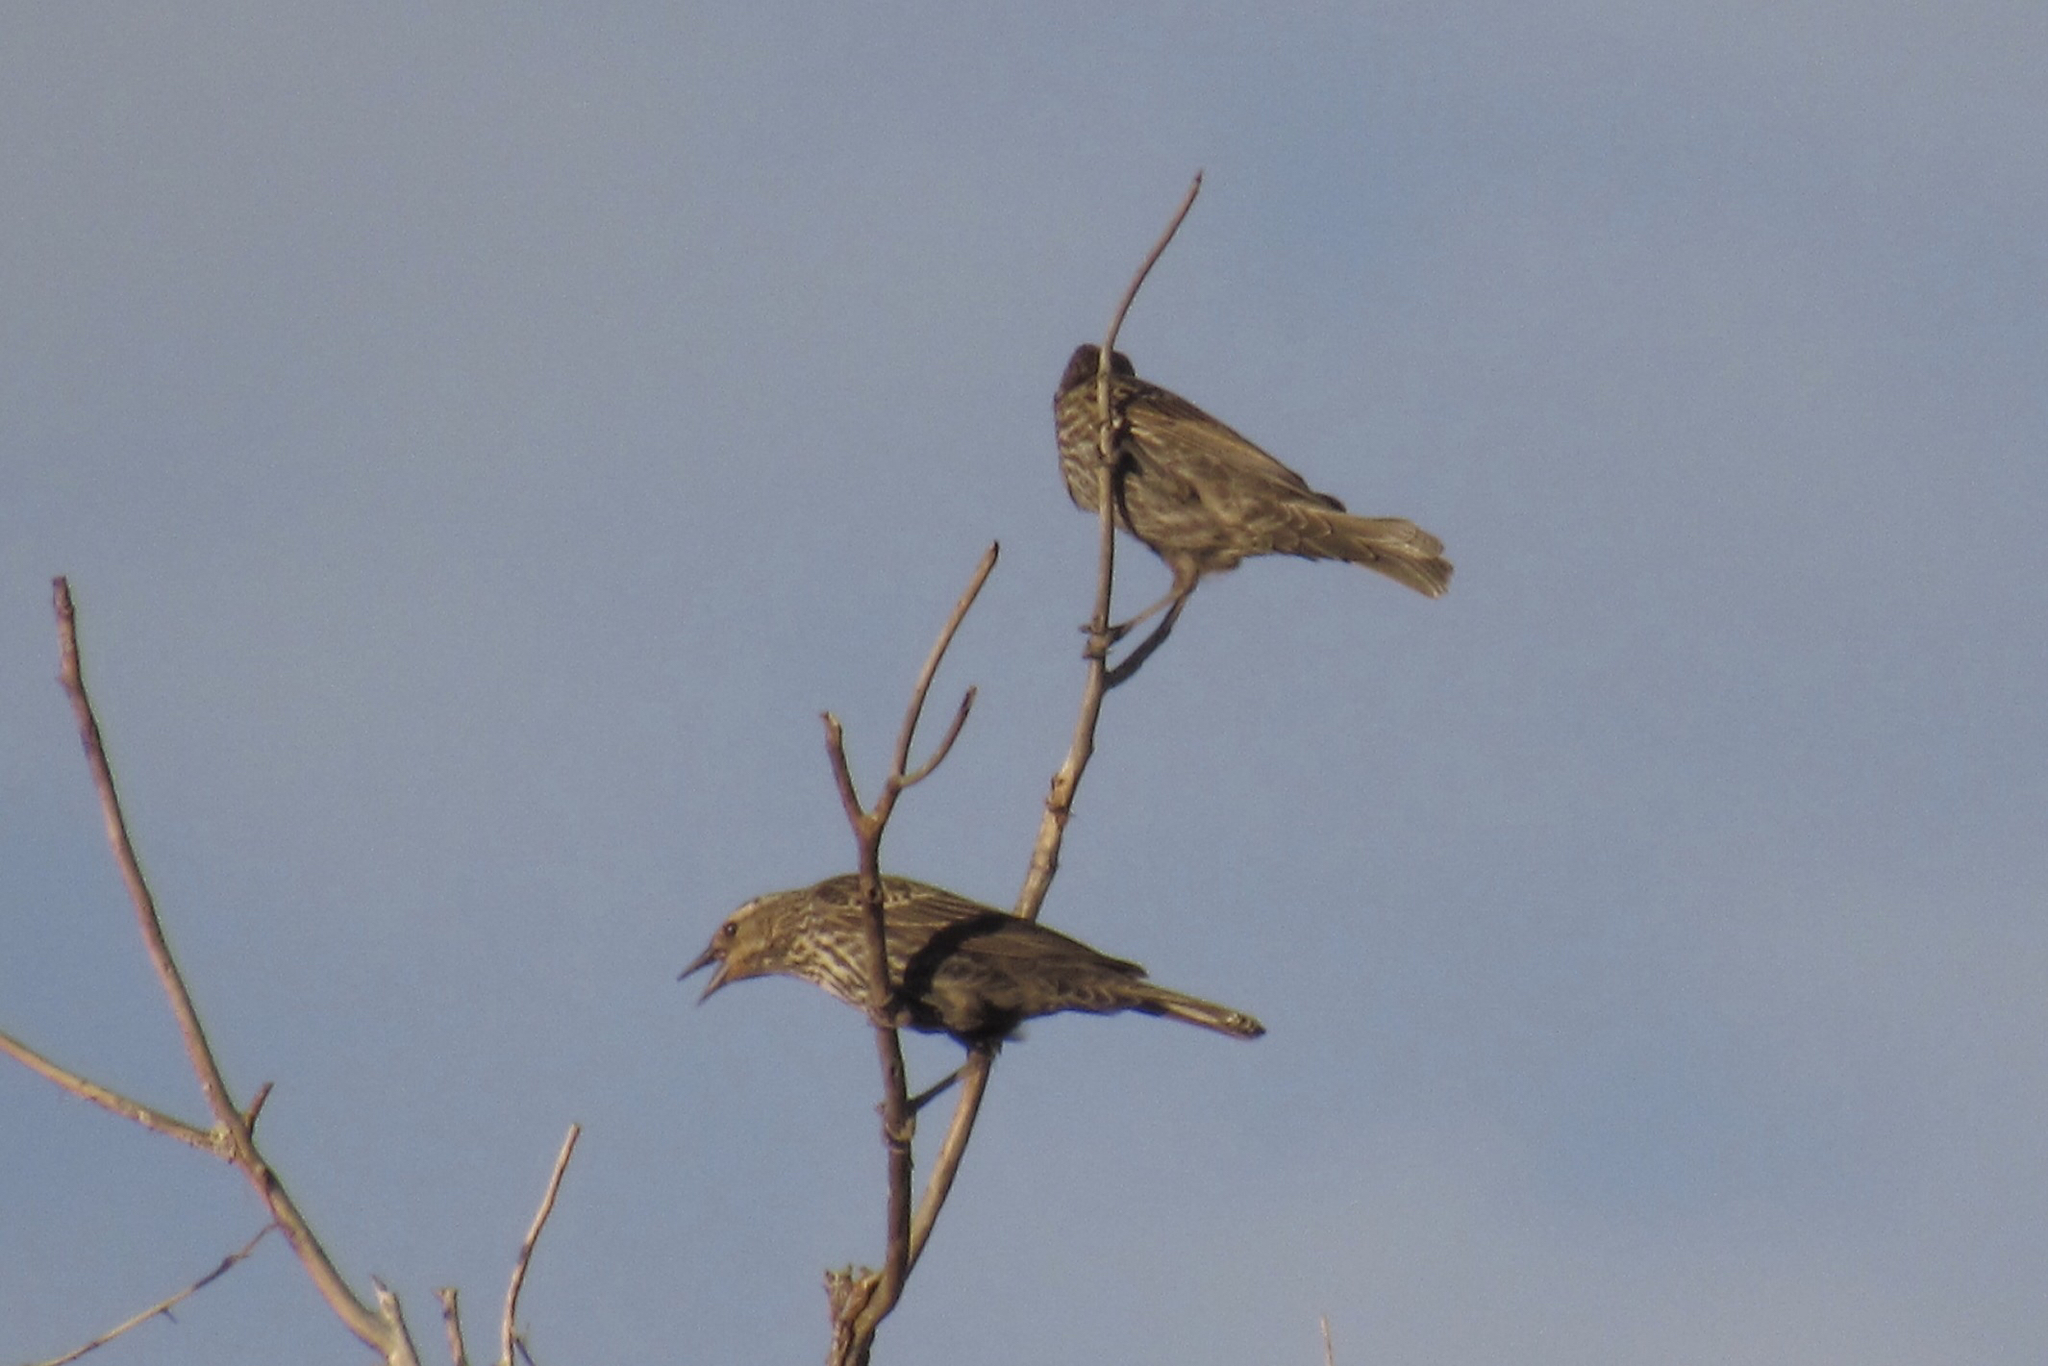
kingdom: Animalia
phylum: Chordata
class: Aves
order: Passeriformes
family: Icteridae
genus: Agelaius
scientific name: Agelaius phoeniceus
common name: Red-winged blackbird
